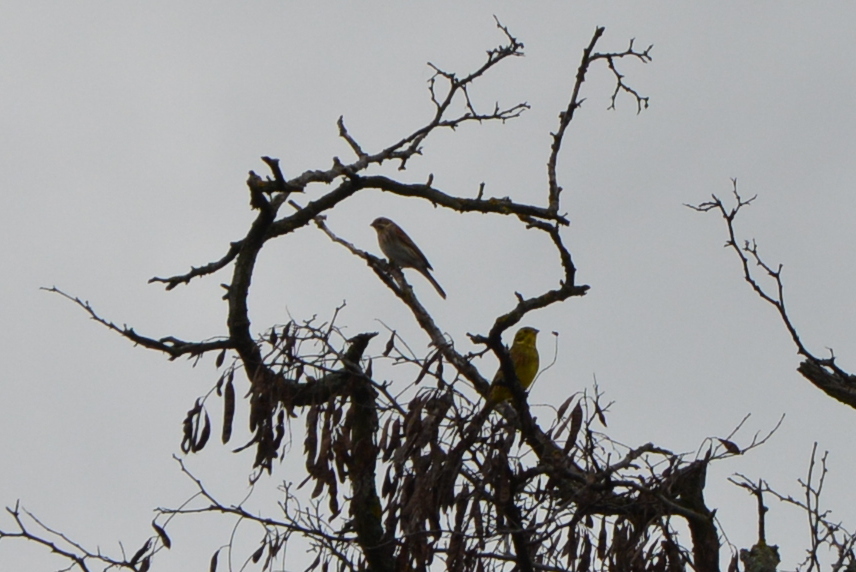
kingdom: Animalia
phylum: Chordata
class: Aves
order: Passeriformes
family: Emberizidae
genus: Emberiza
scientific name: Emberiza citrinella
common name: Yellowhammer
